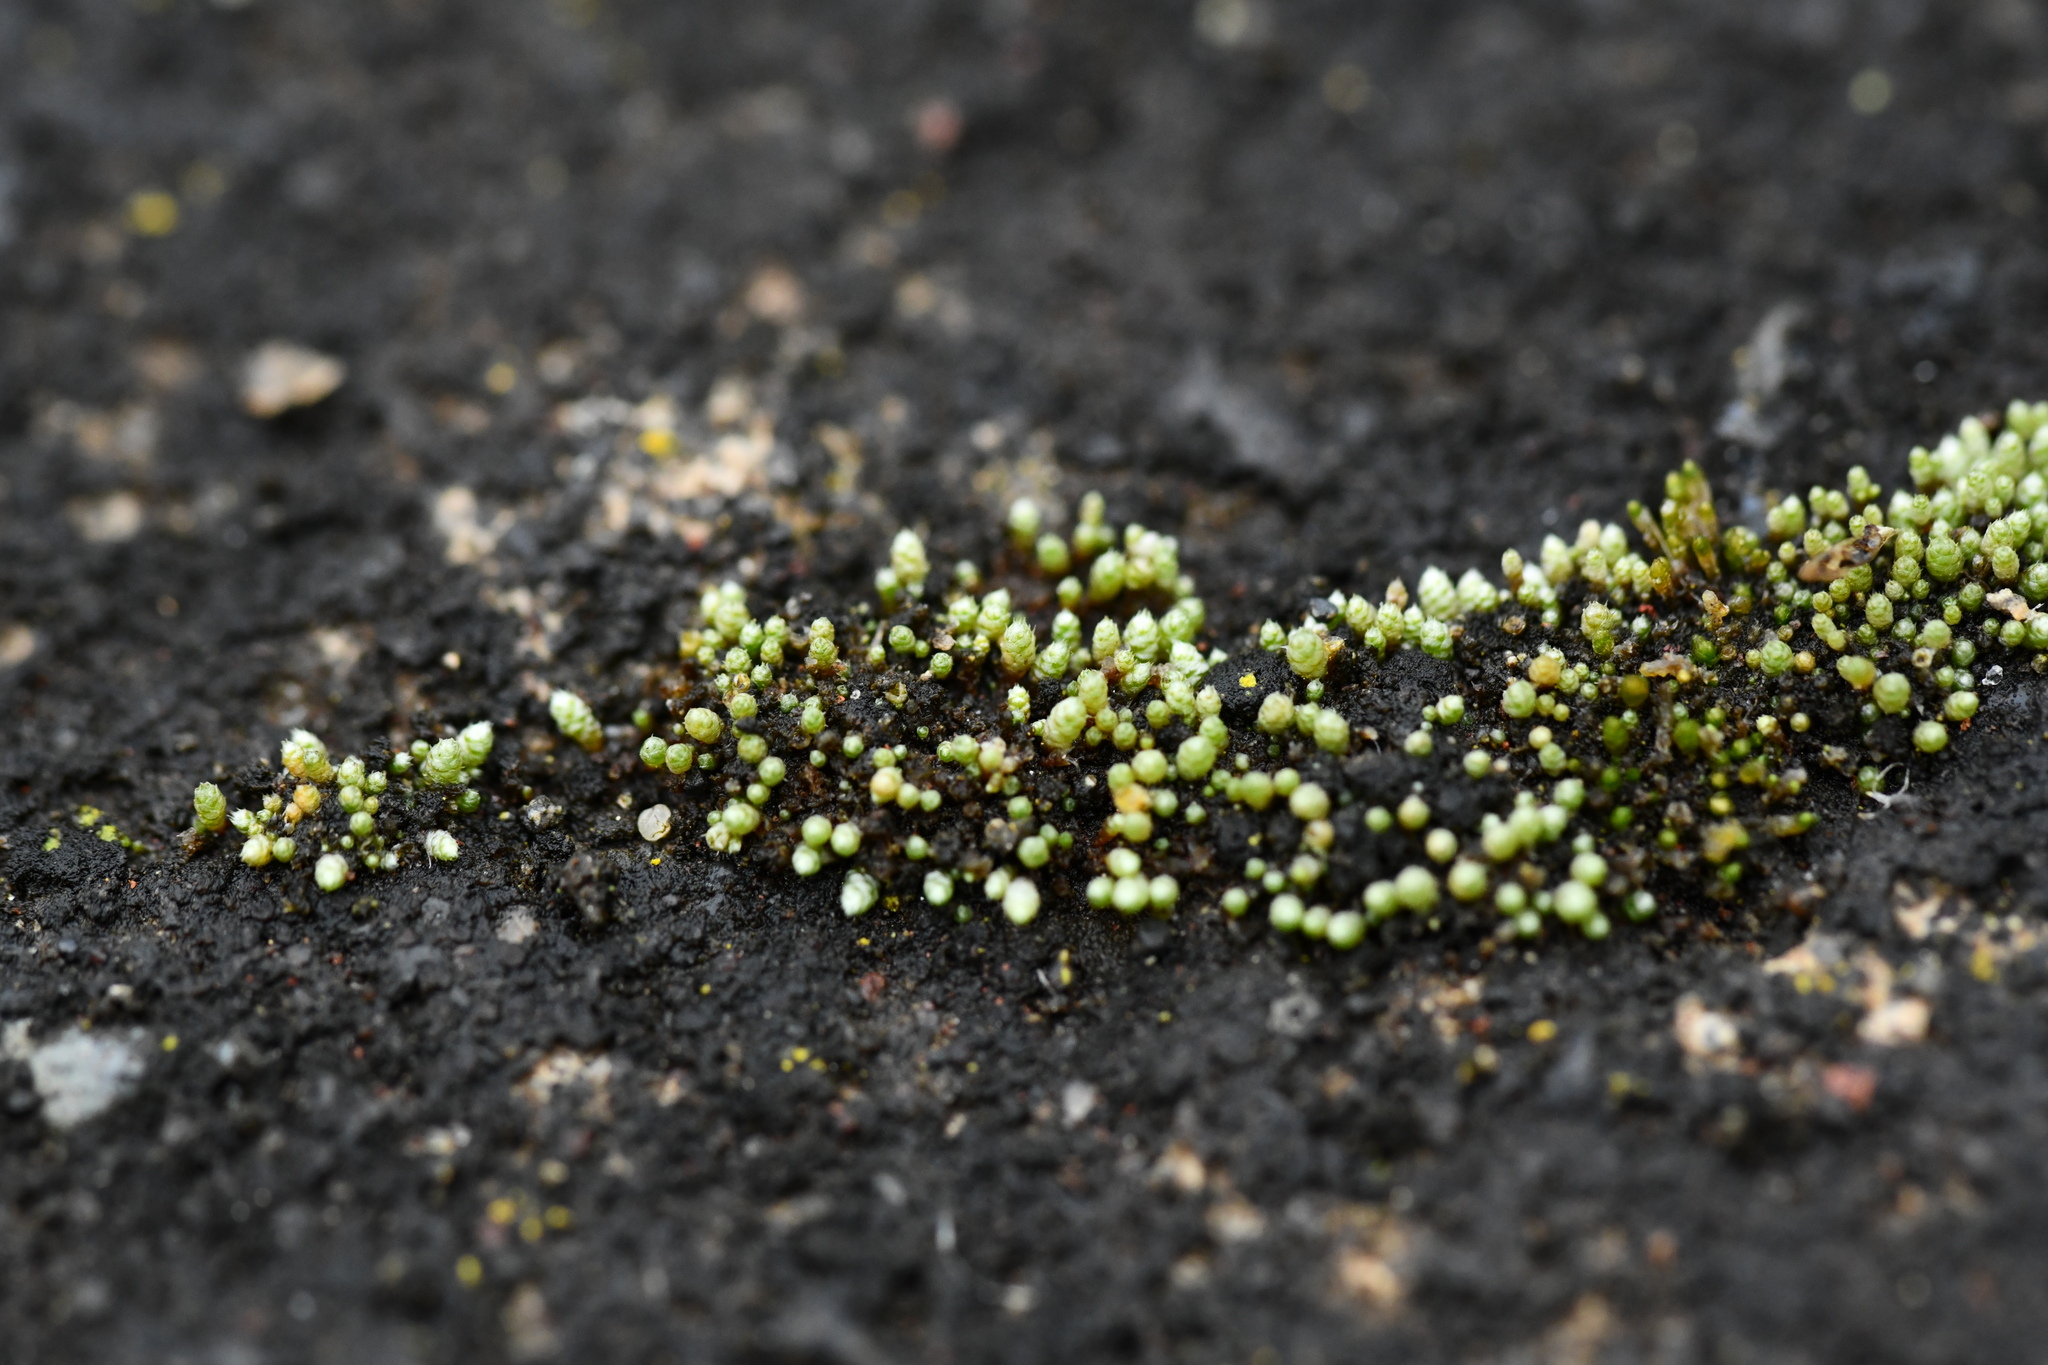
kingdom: Plantae
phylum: Bryophyta
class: Bryopsida
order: Bryales
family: Bryaceae
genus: Bryum
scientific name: Bryum argenteum
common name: Silver-moss
